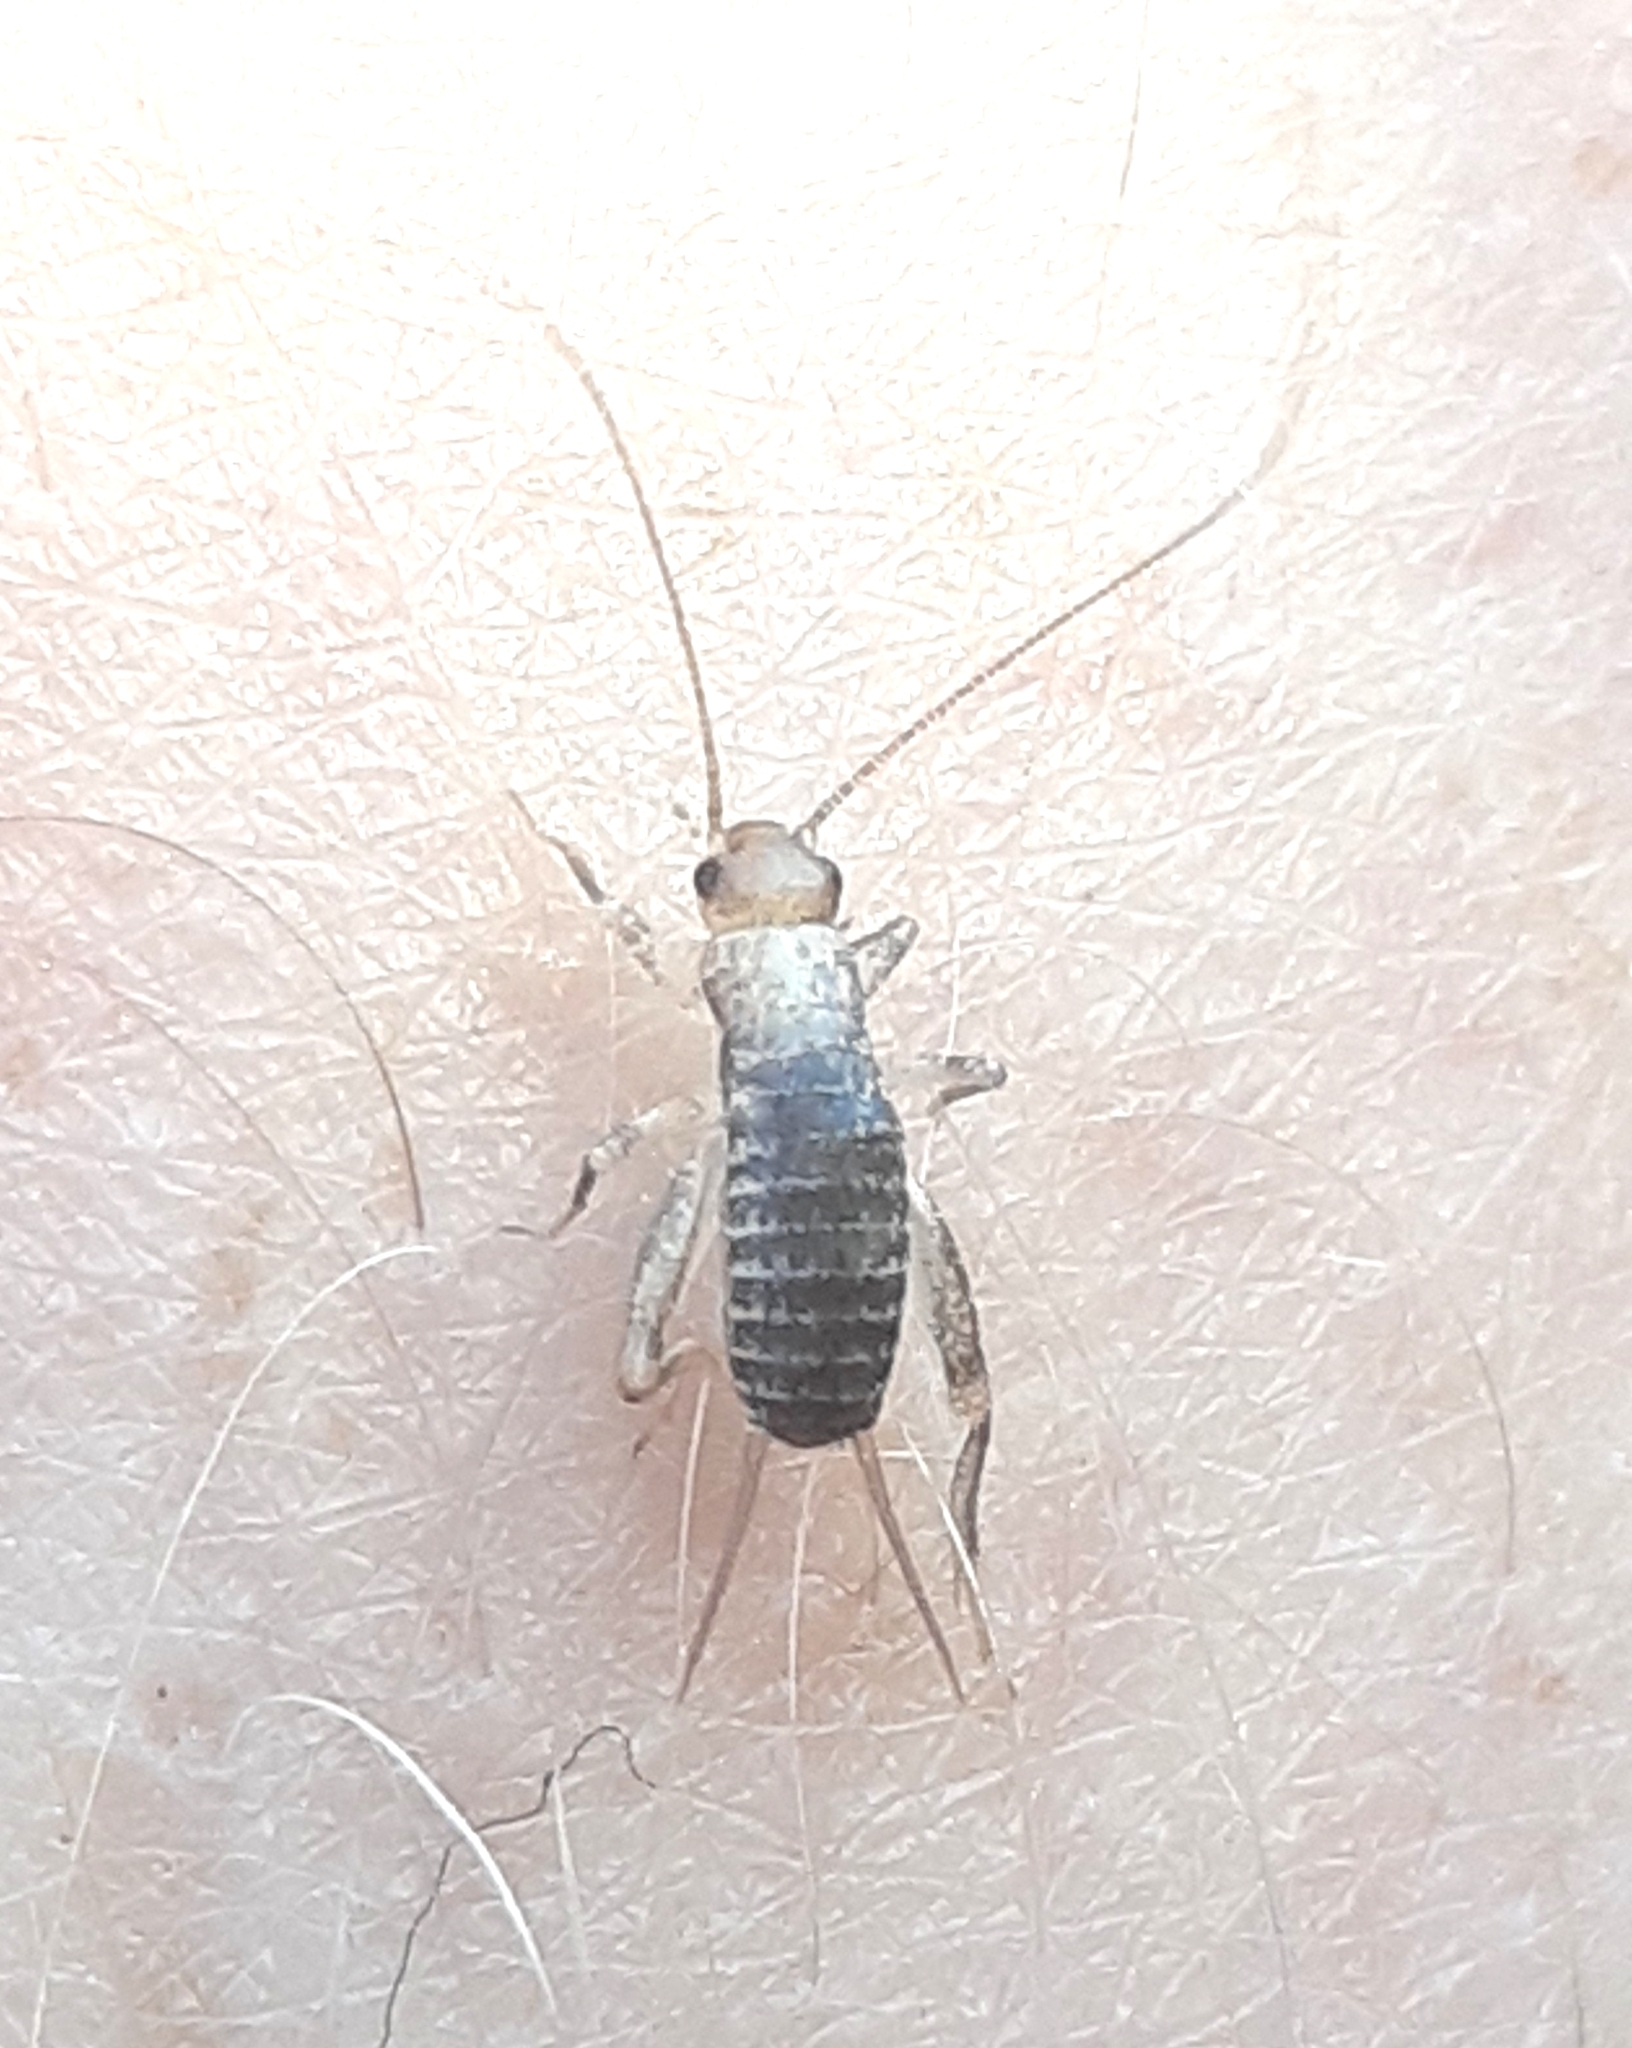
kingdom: Animalia
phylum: Arthropoda
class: Insecta
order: Orthoptera
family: Mogoplistidae
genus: Pseudomogoplistes
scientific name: Pseudomogoplistes squamiger
